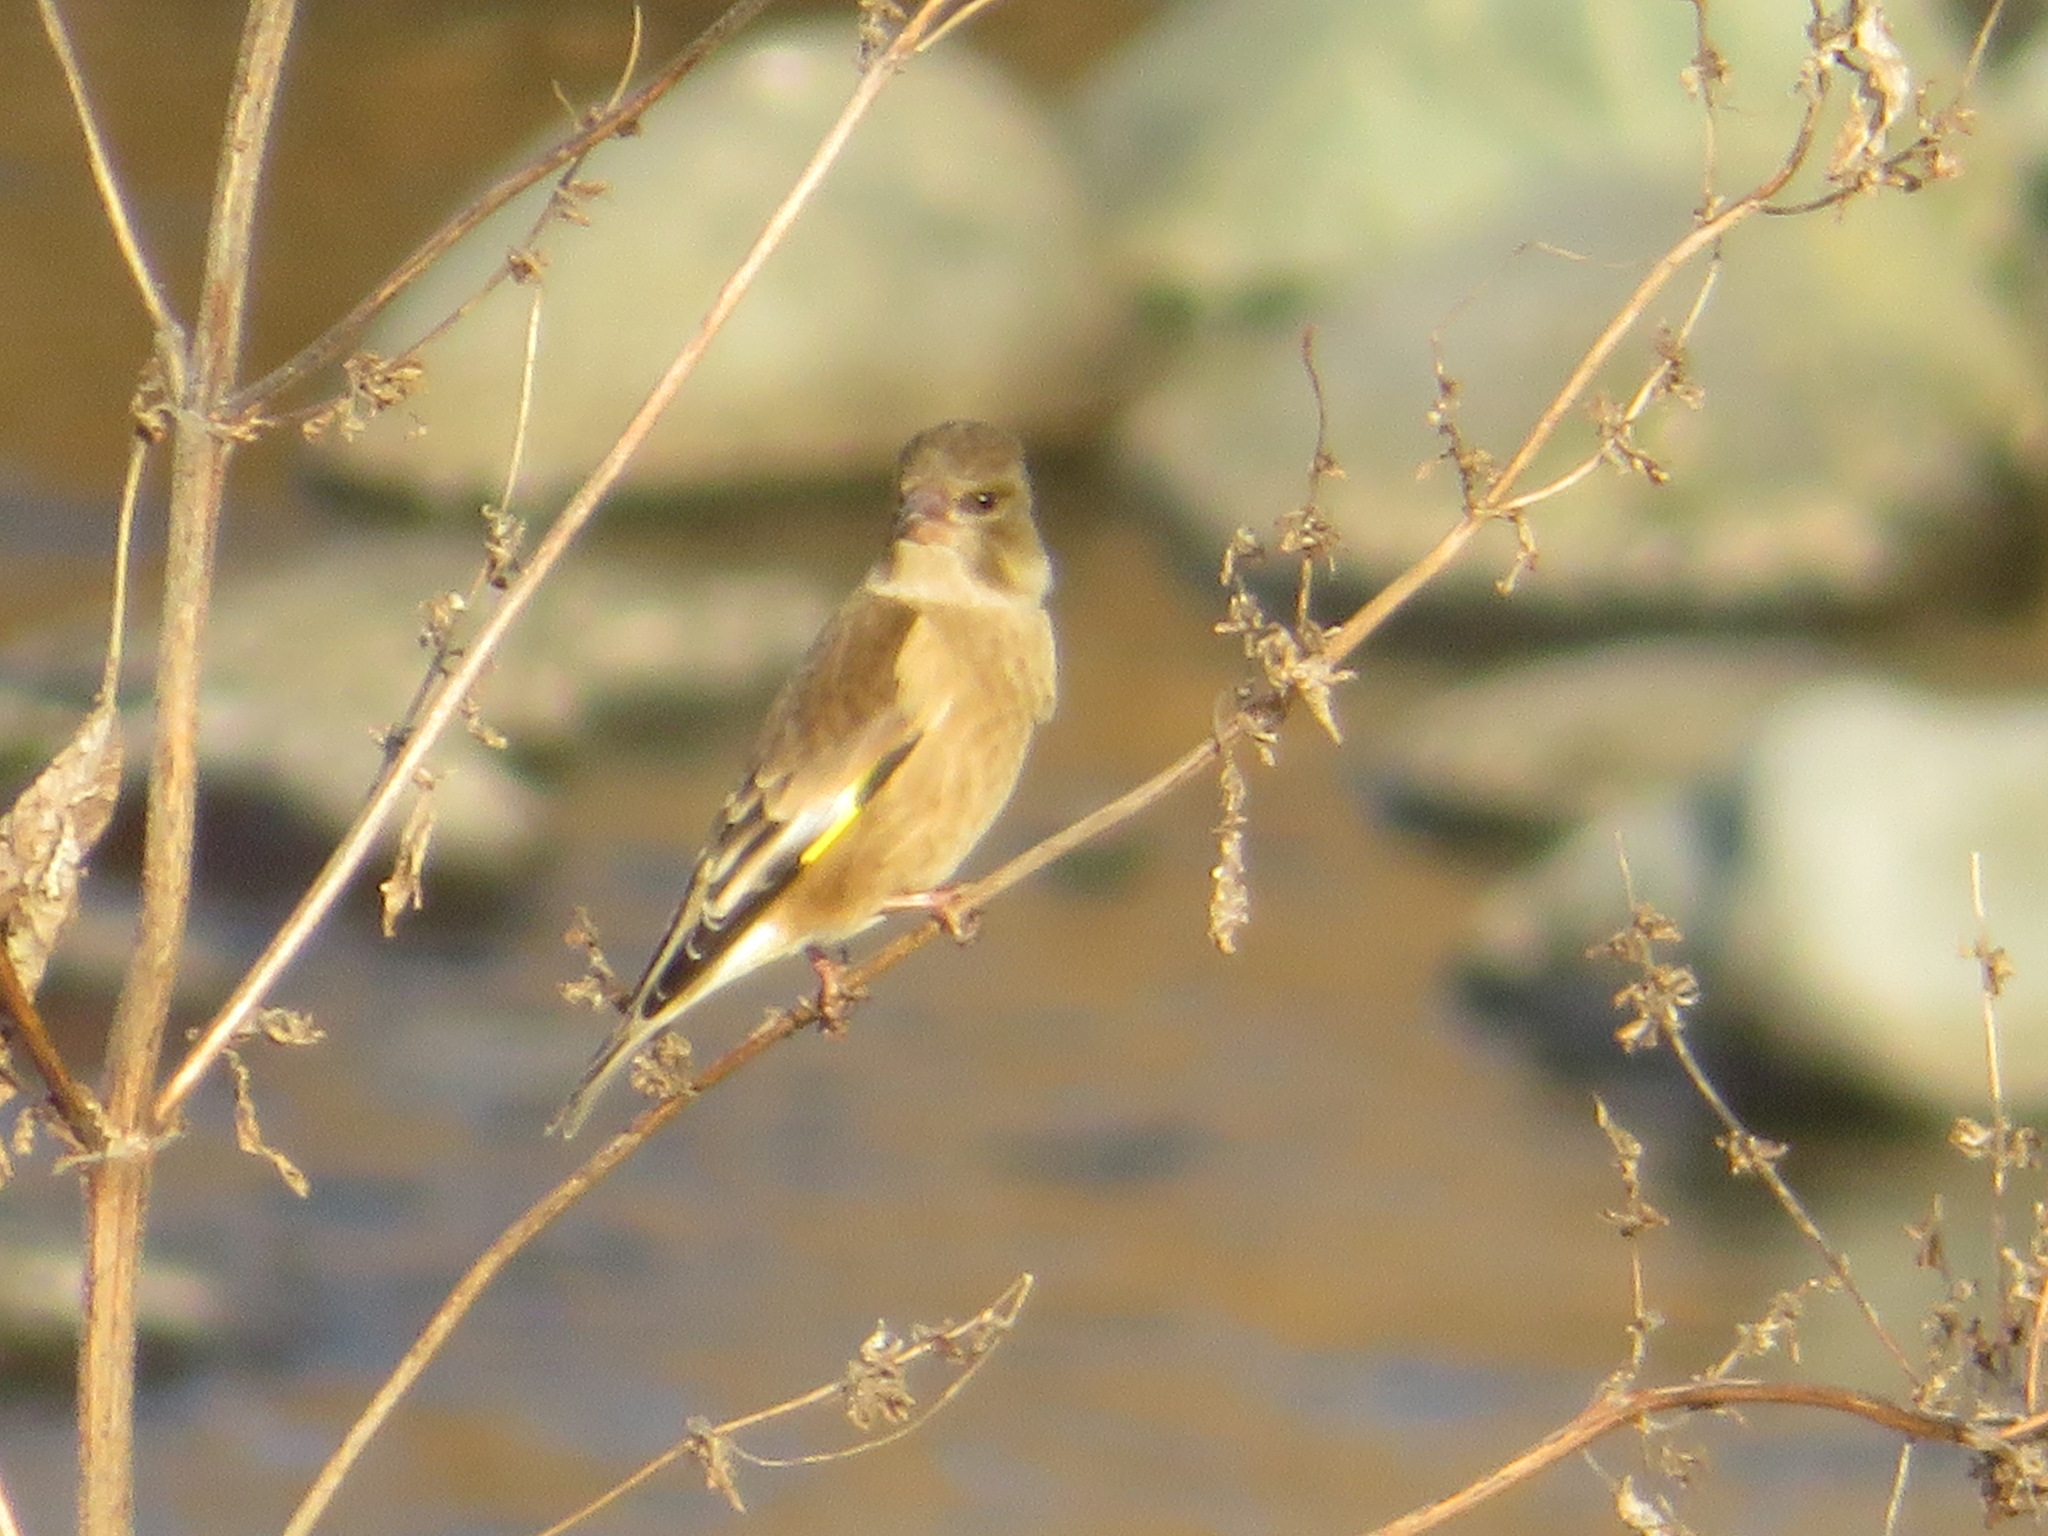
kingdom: Plantae
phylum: Tracheophyta
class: Liliopsida
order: Poales
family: Poaceae
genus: Chloris
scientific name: Chloris sinica
